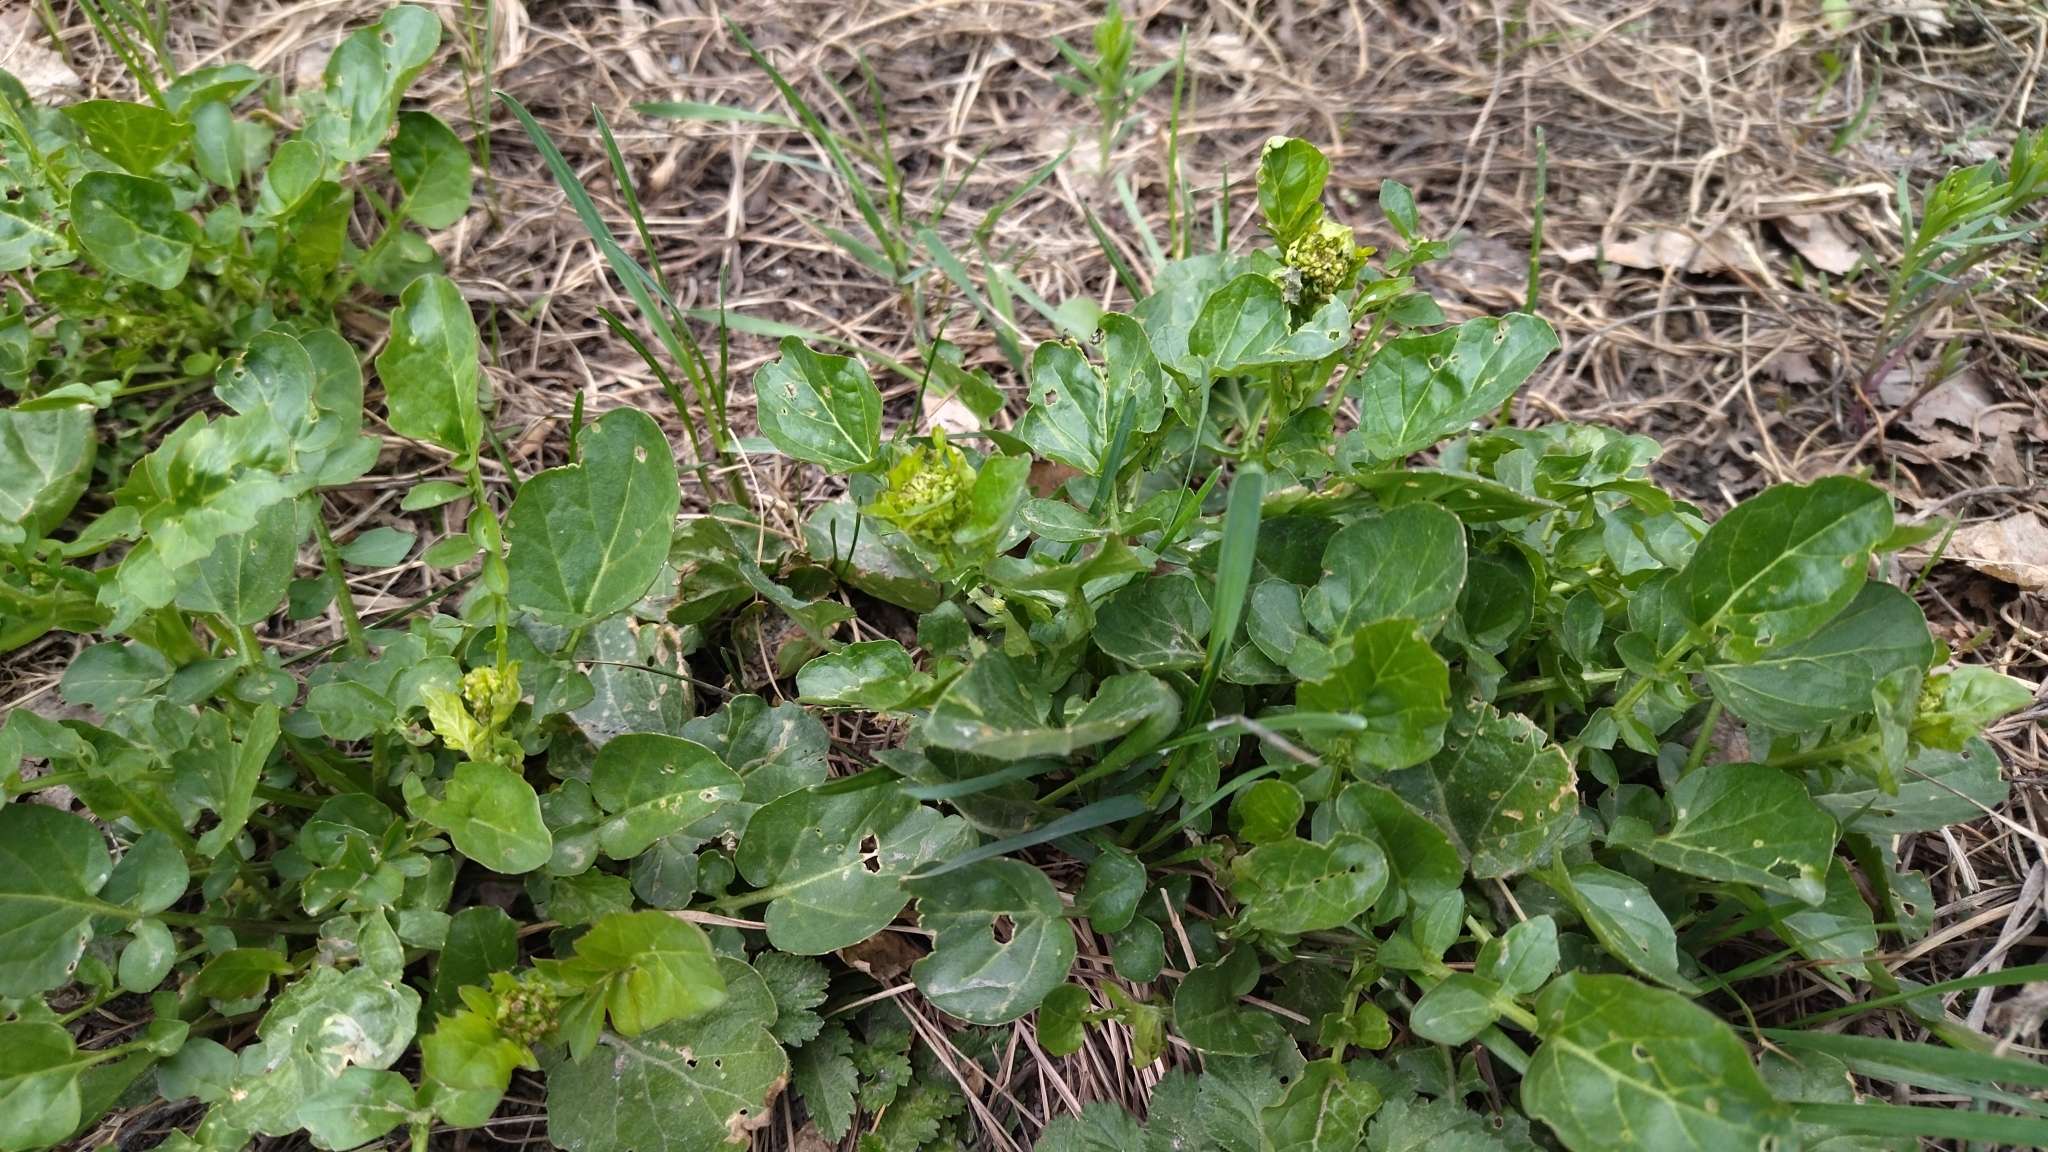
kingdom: Plantae
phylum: Tracheophyta
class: Magnoliopsida
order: Brassicales
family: Brassicaceae
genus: Barbarea
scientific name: Barbarea vulgaris
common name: Cressy-greens
